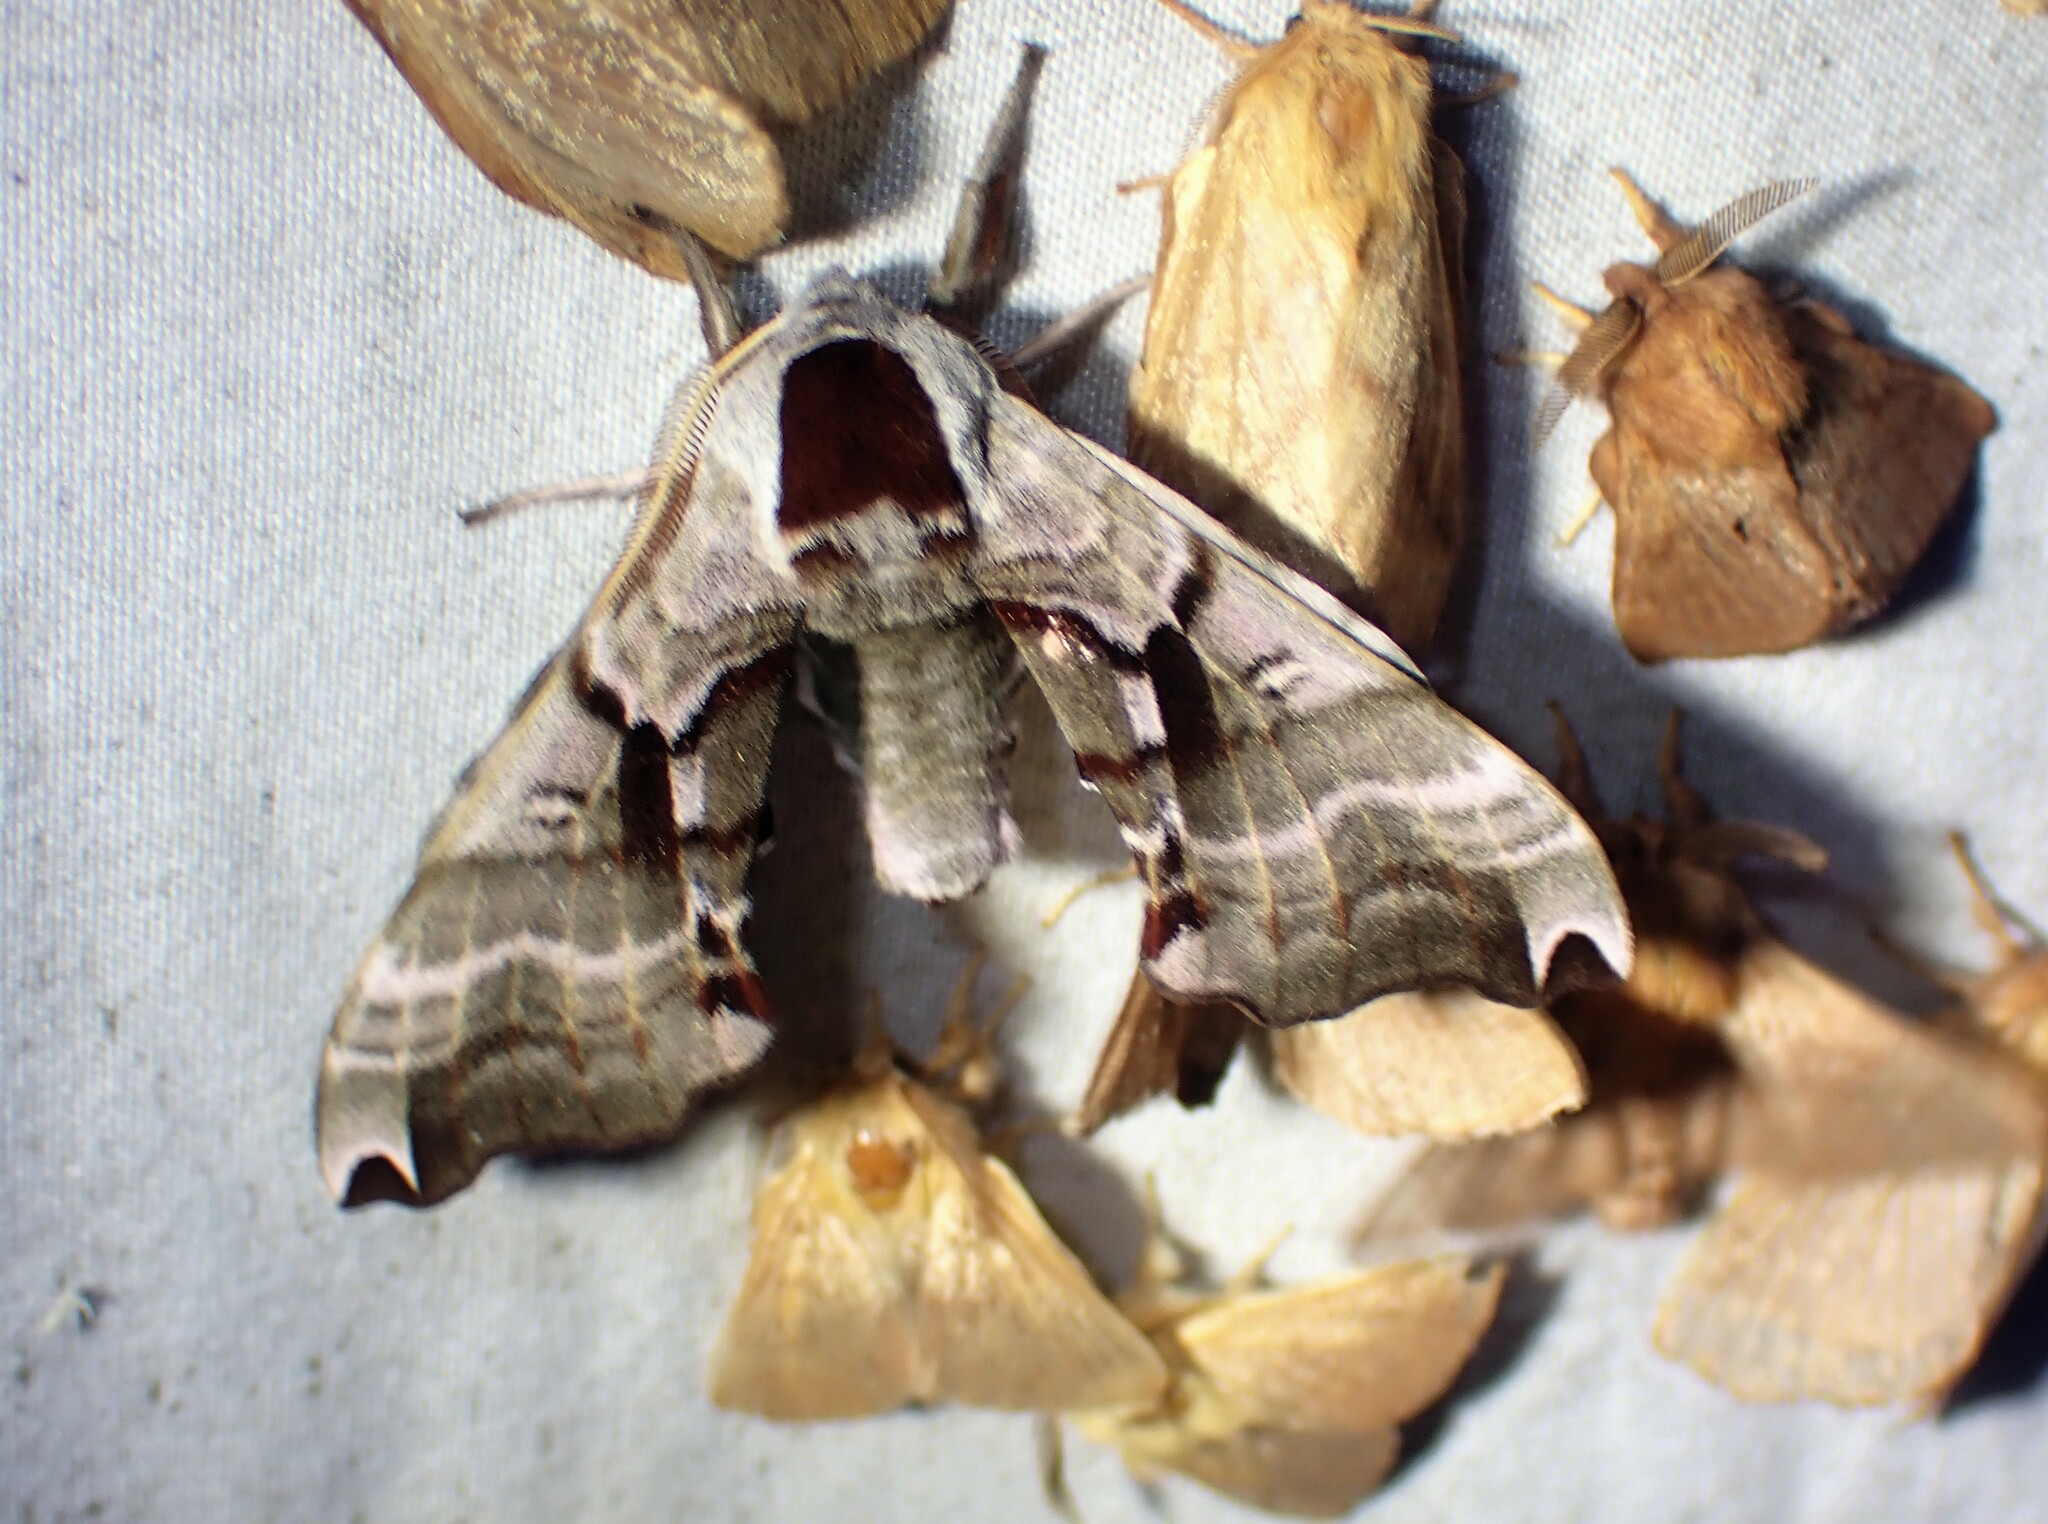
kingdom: Animalia
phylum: Arthropoda
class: Insecta
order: Lepidoptera
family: Sphingidae
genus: Smerinthus
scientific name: Smerinthus jamaicensis
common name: Twin spotted sphinx
